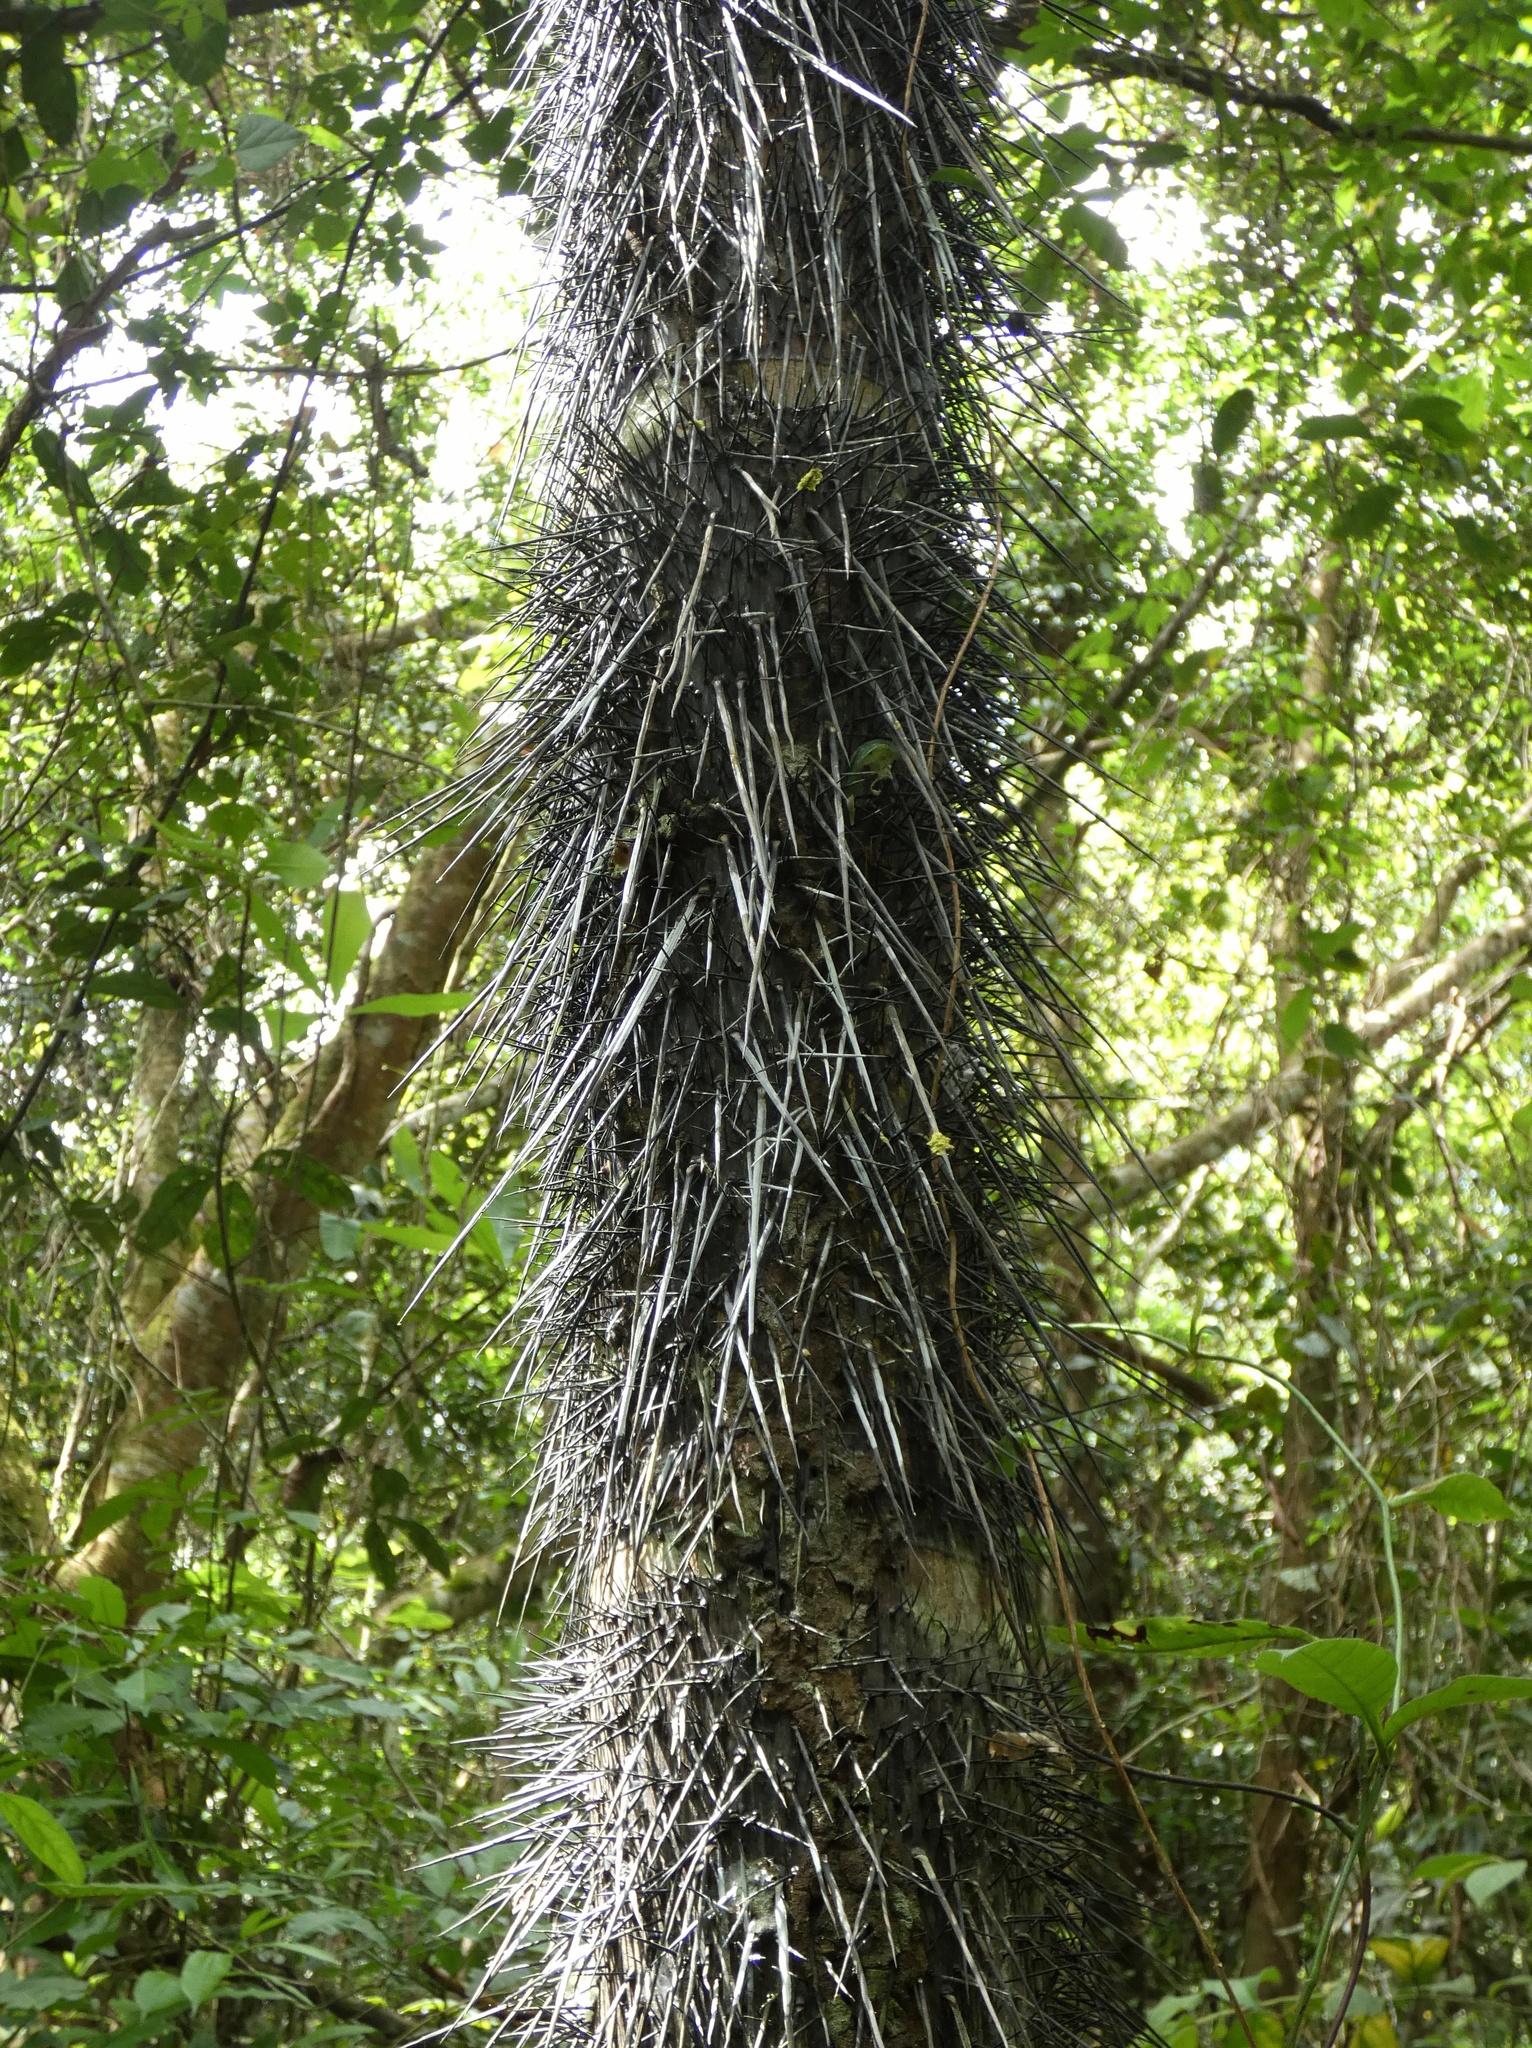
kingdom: Plantae
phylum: Tracheophyta
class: Liliopsida
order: Arecales
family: Arecaceae
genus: Astrocaryum
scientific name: Astrocaryum standleyanum
